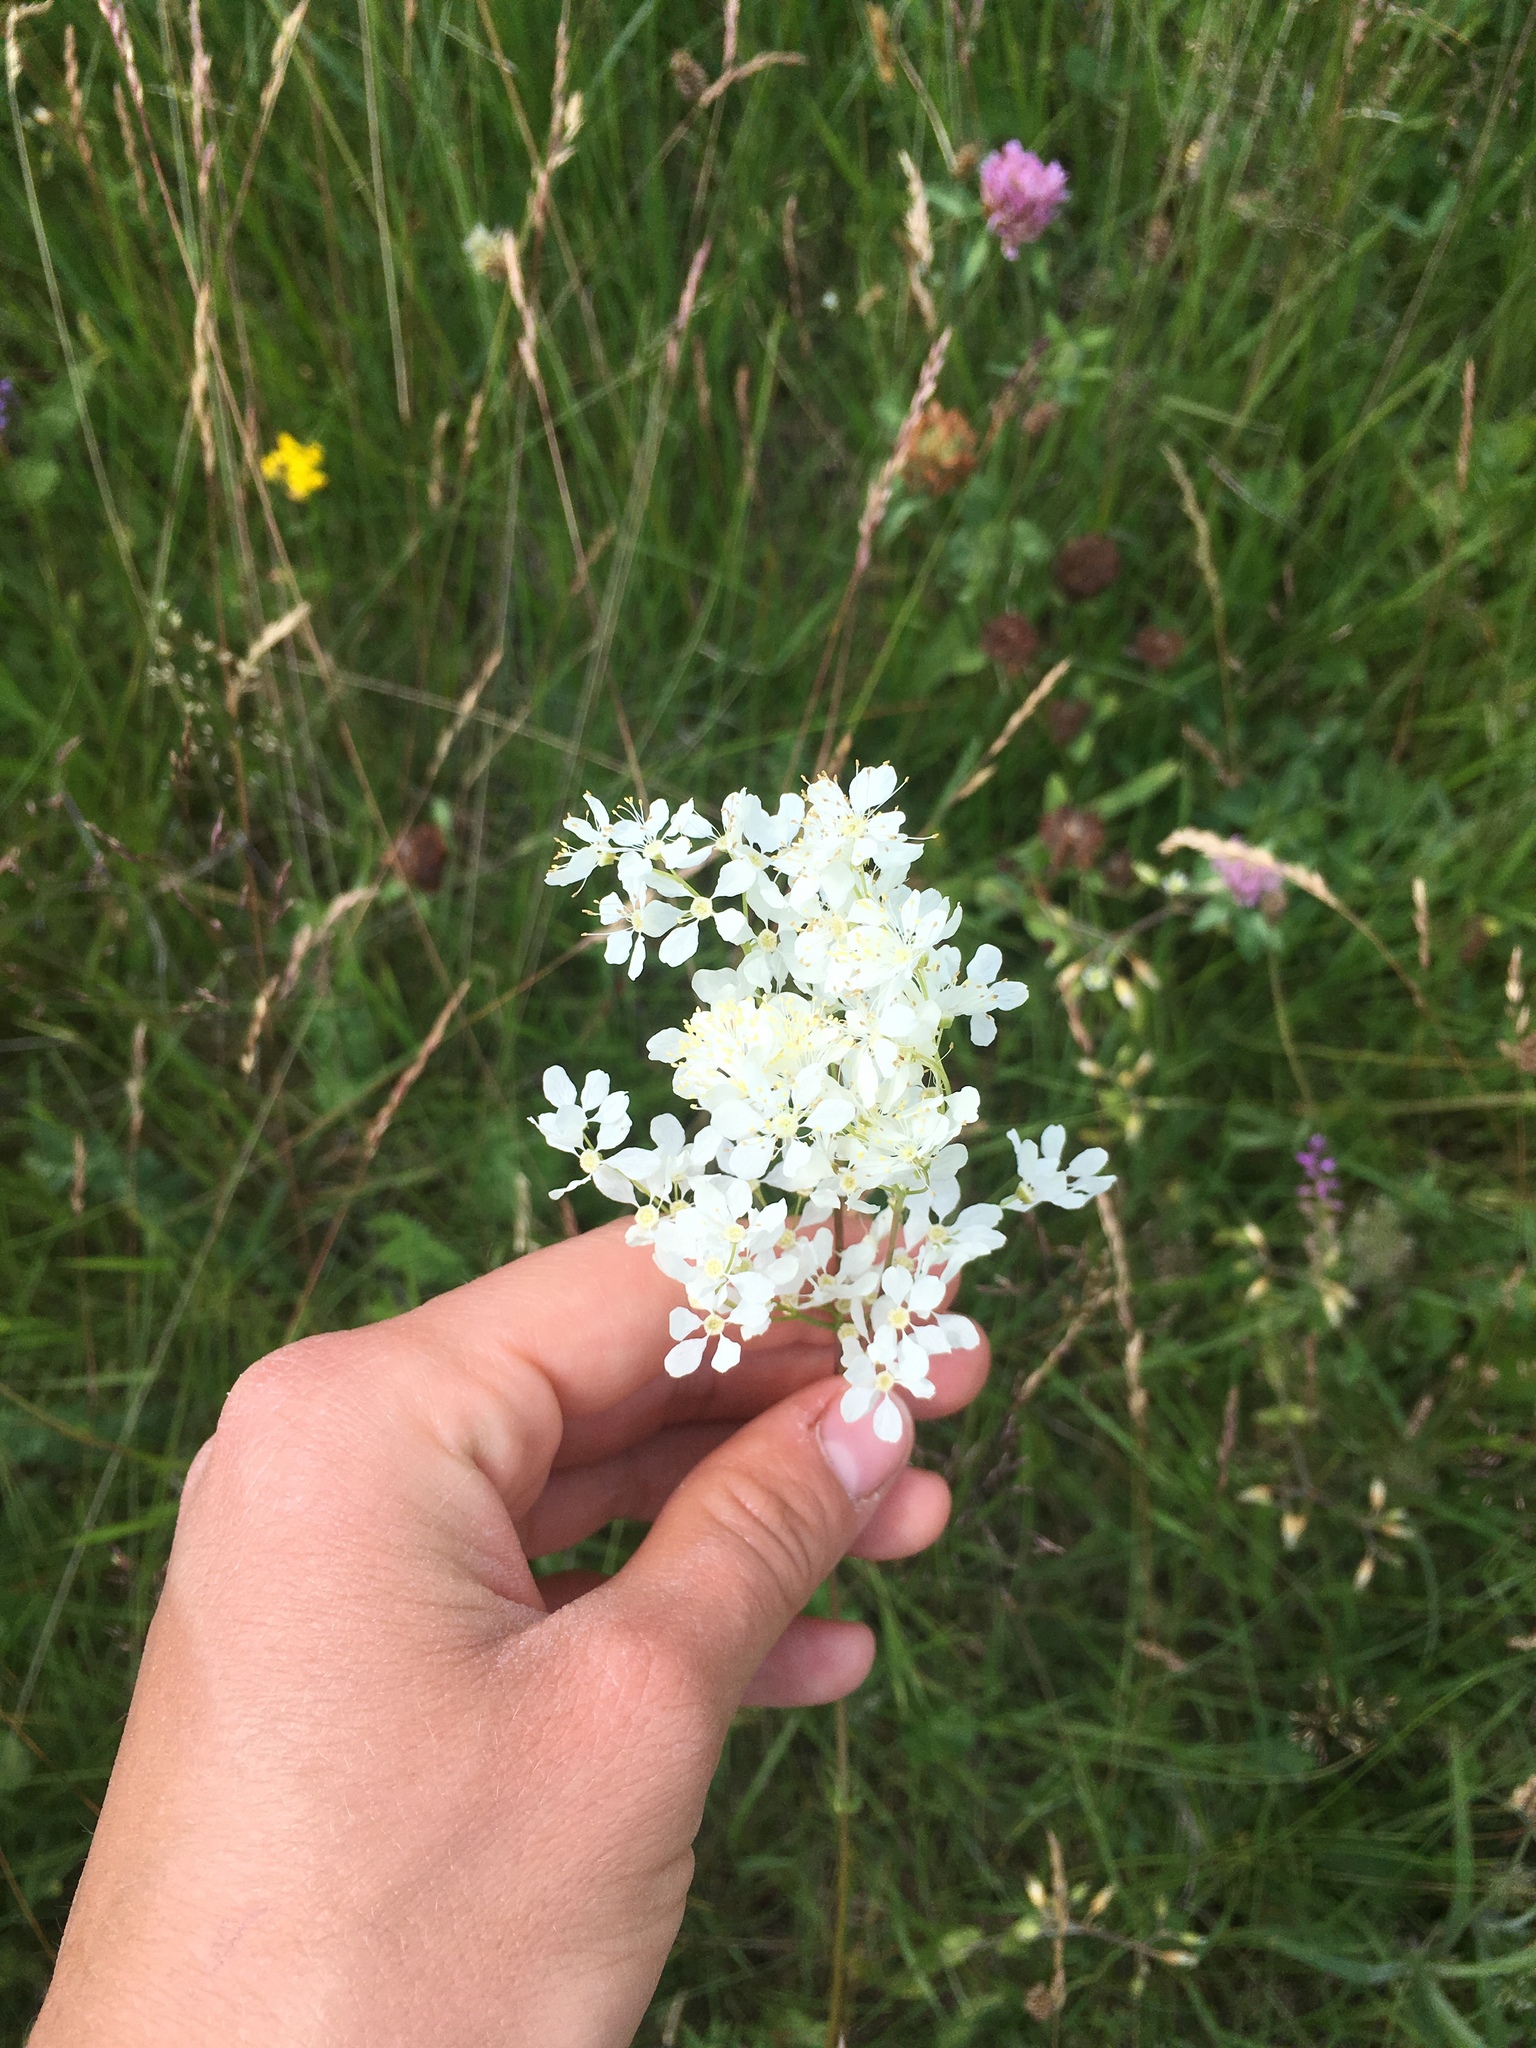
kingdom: Plantae
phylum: Tracheophyta
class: Magnoliopsida
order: Rosales
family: Rosaceae
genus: Filipendula
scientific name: Filipendula vulgaris
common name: Dropwort
